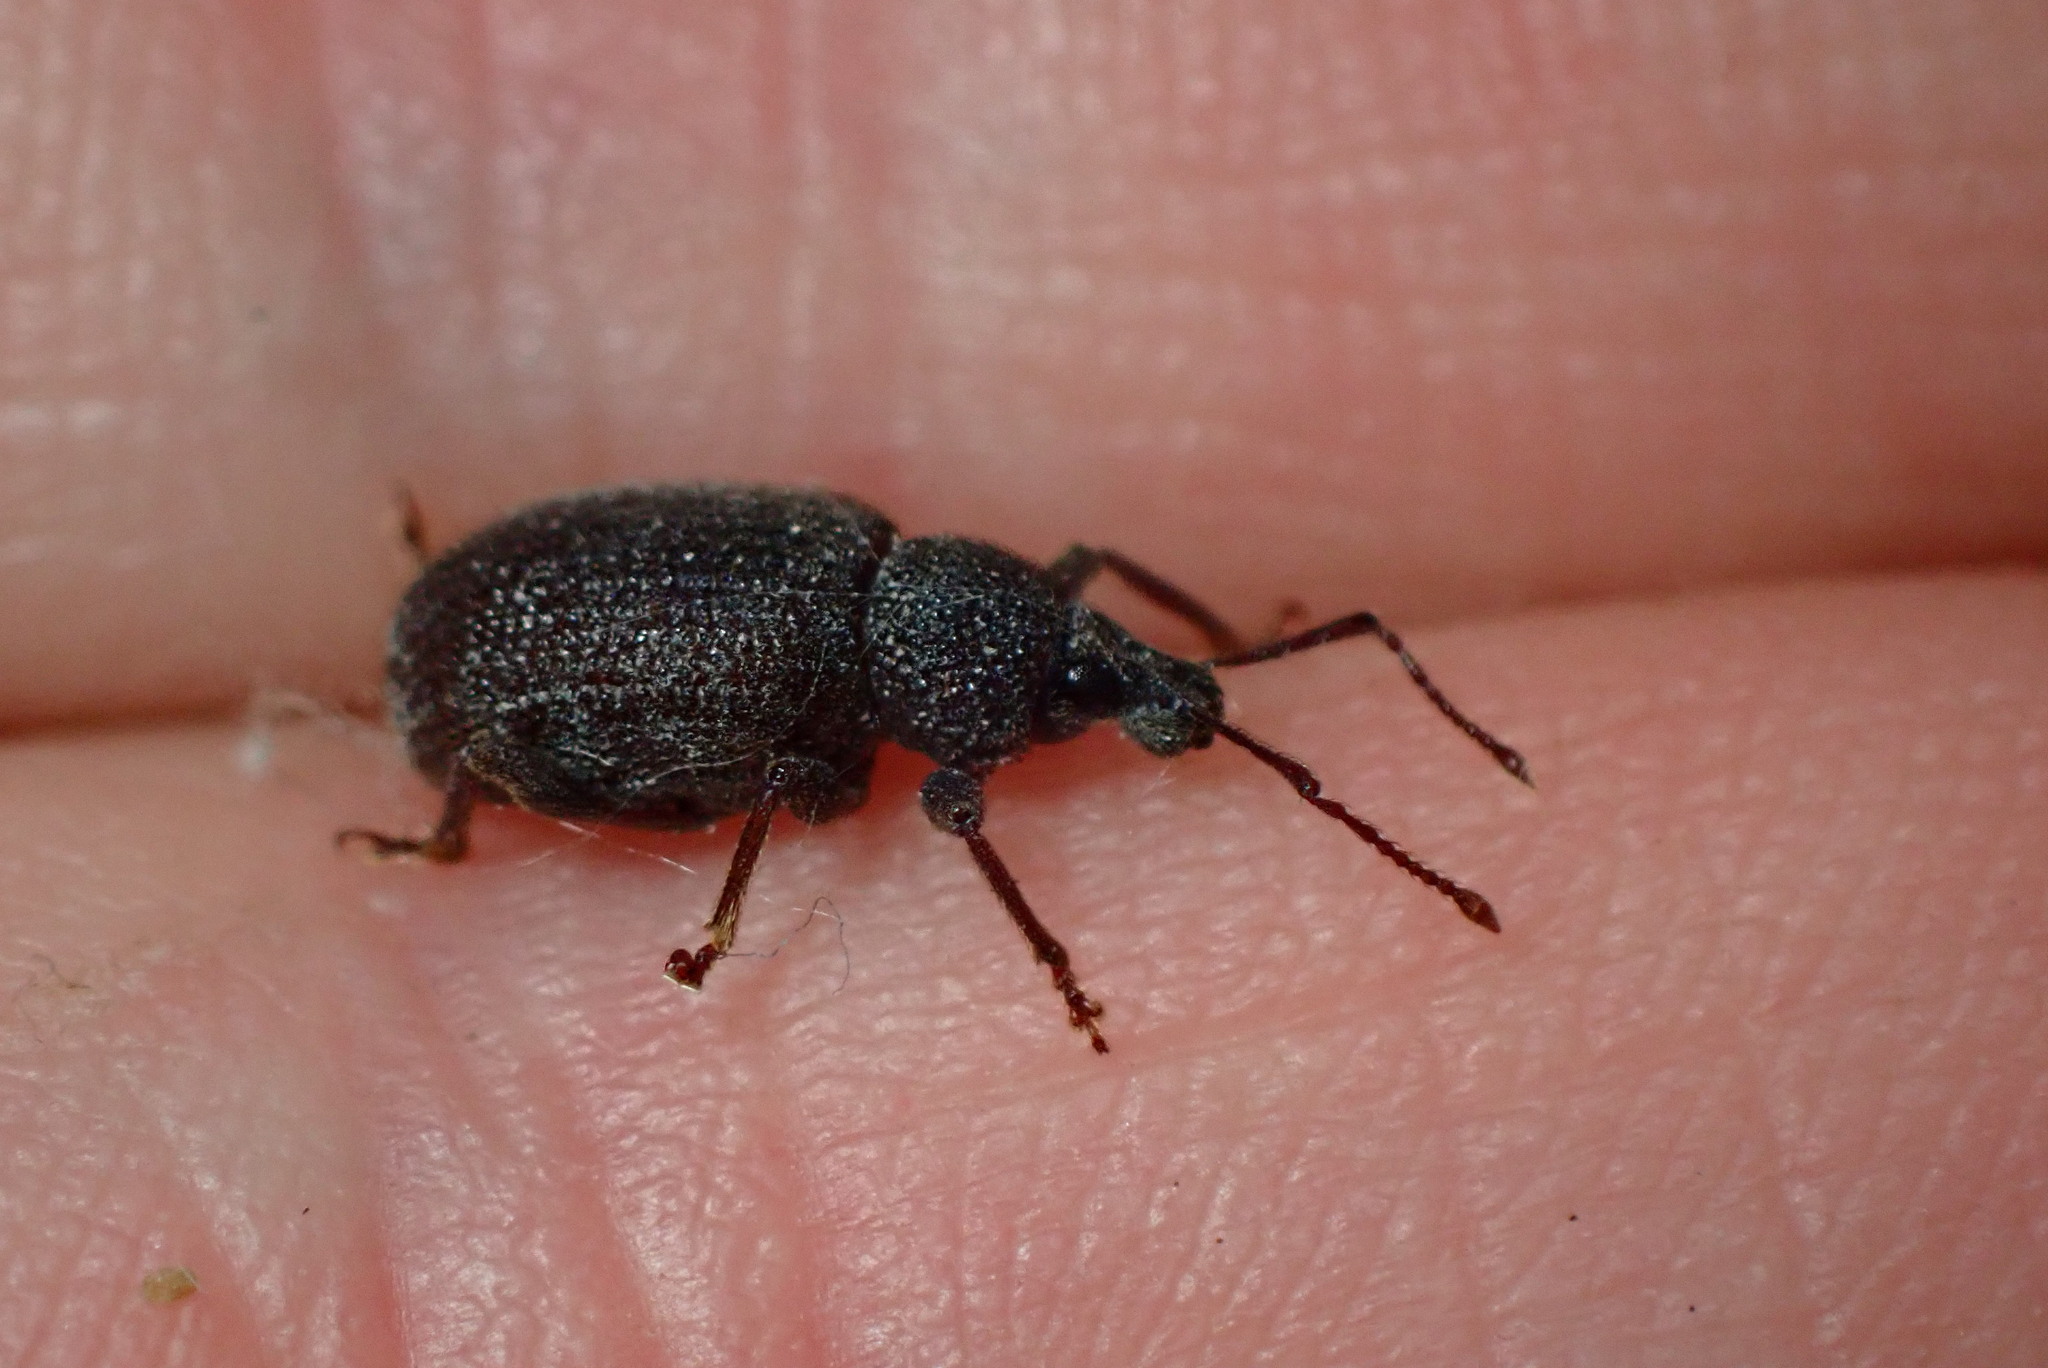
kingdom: Animalia
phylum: Arthropoda
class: Insecta
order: Coleoptera
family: Curculionidae
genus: Otiorhynchus
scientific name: Otiorhynchus rugosostriatus
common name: Weevil
